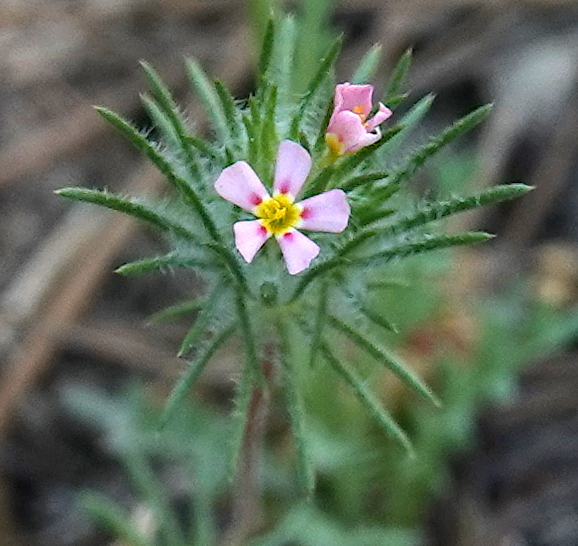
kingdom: Plantae
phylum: Tracheophyta
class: Magnoliopsida
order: Ericales
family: Polemoniaceae
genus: Leptosiphon
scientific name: Leptosiphon ciliatus
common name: Whiskerbrush
